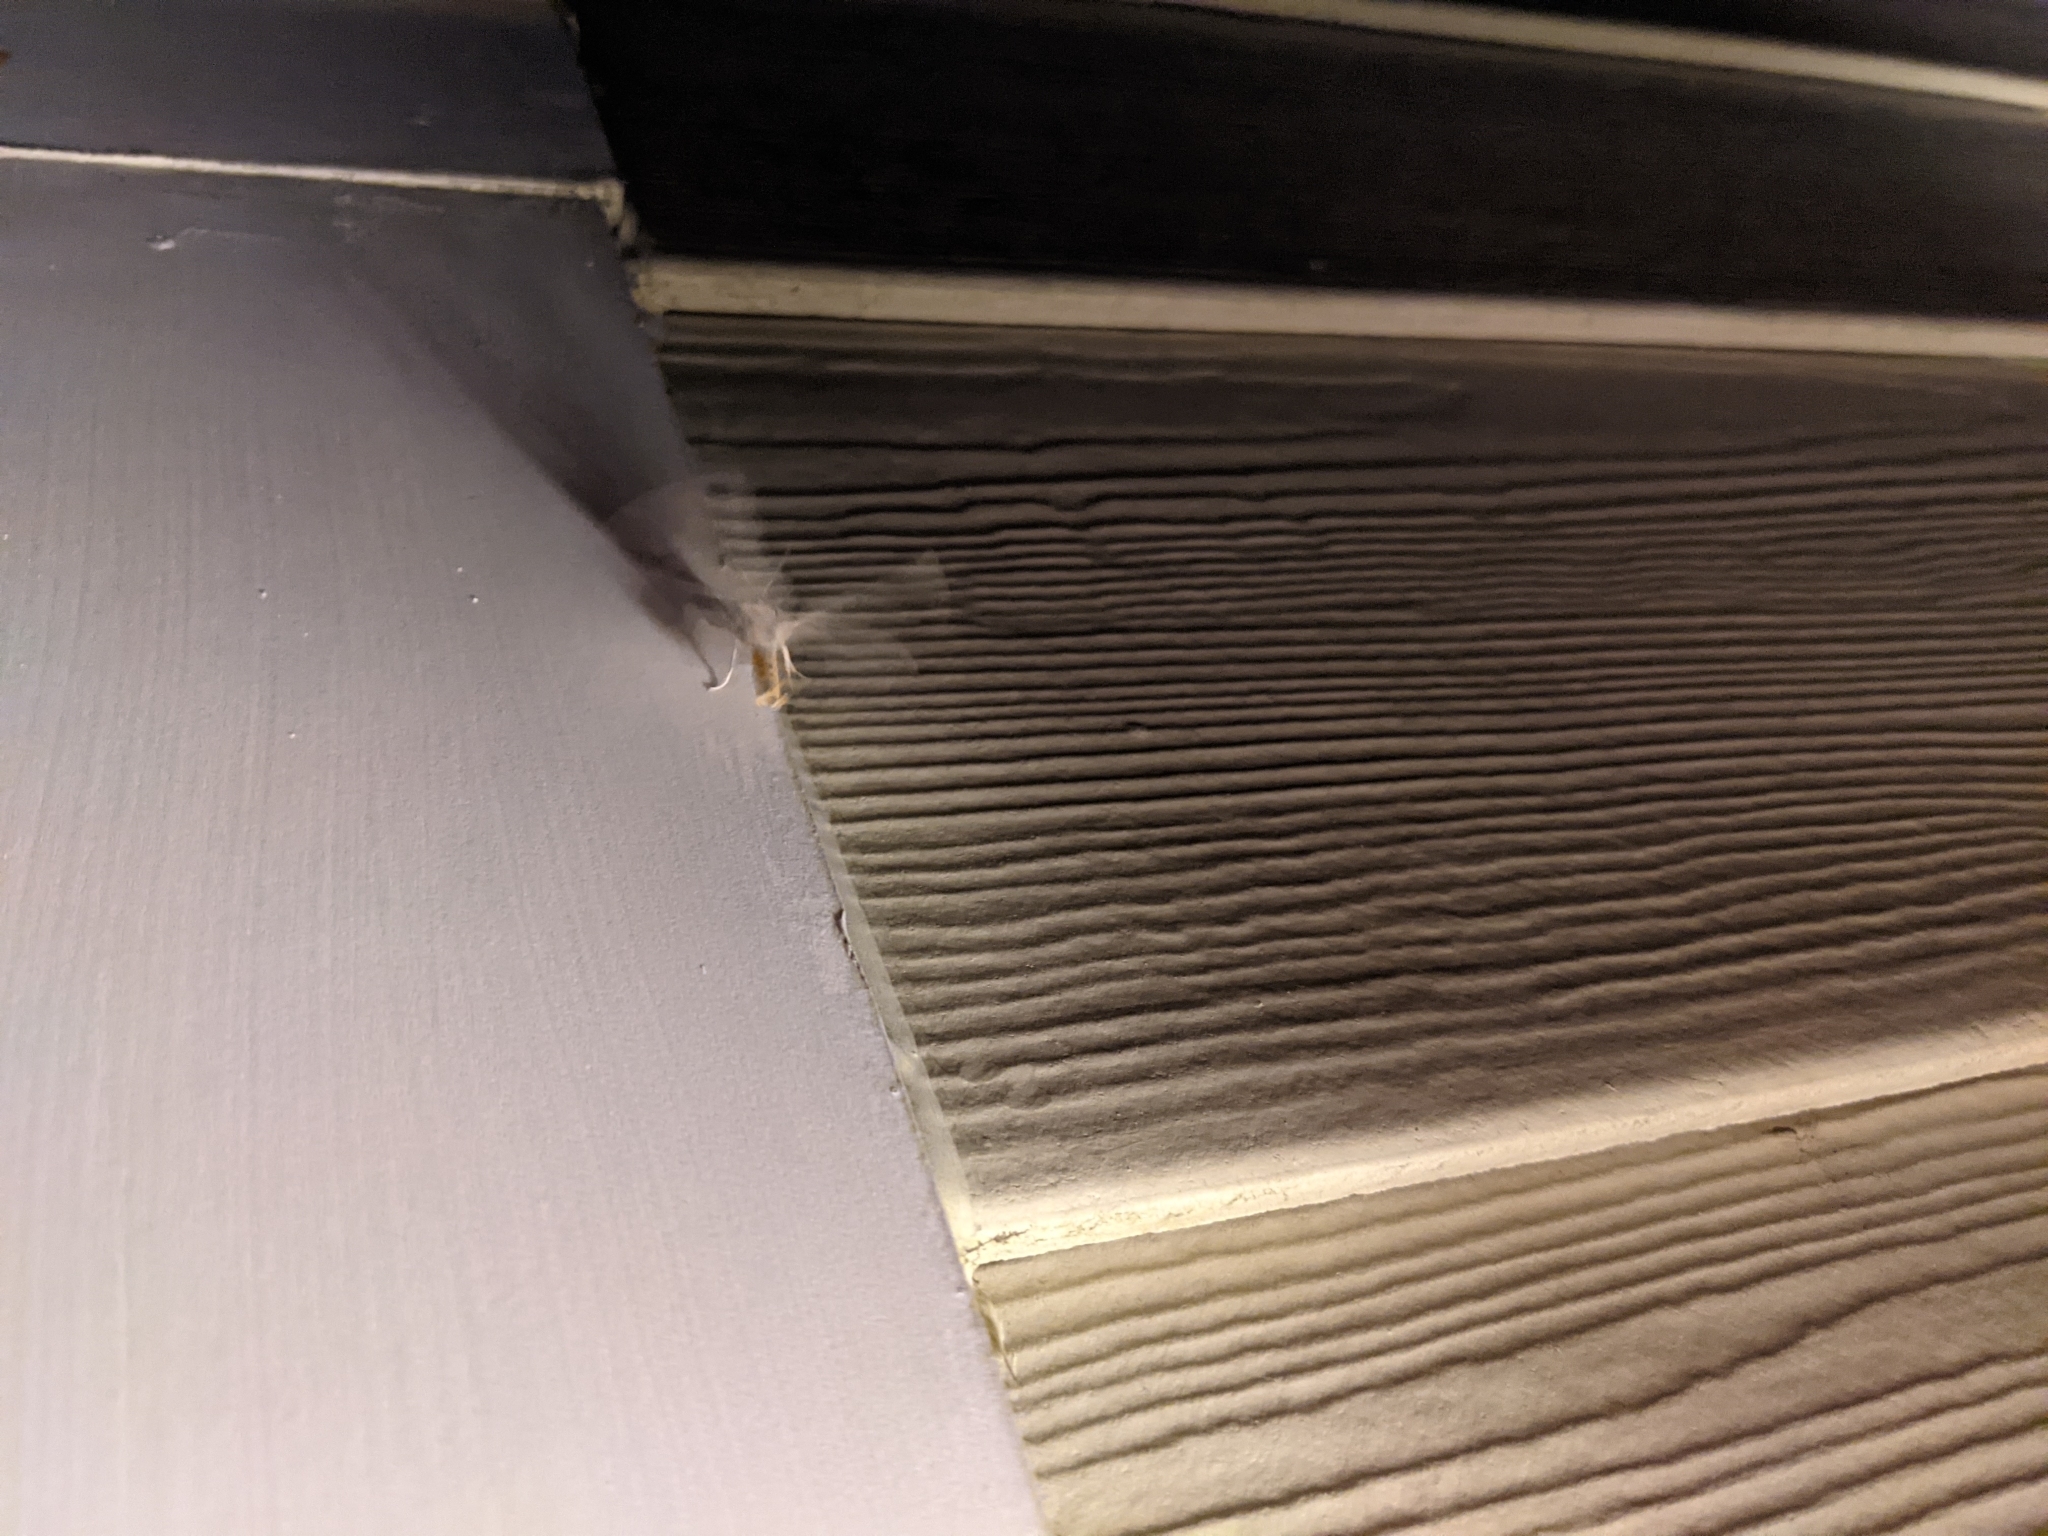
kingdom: Animalia
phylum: Arthropoda
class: Insecta
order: Lepidoptera
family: Erebidae
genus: Cycnia
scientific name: Cycnia tenera
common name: Delicate cycnia moth
